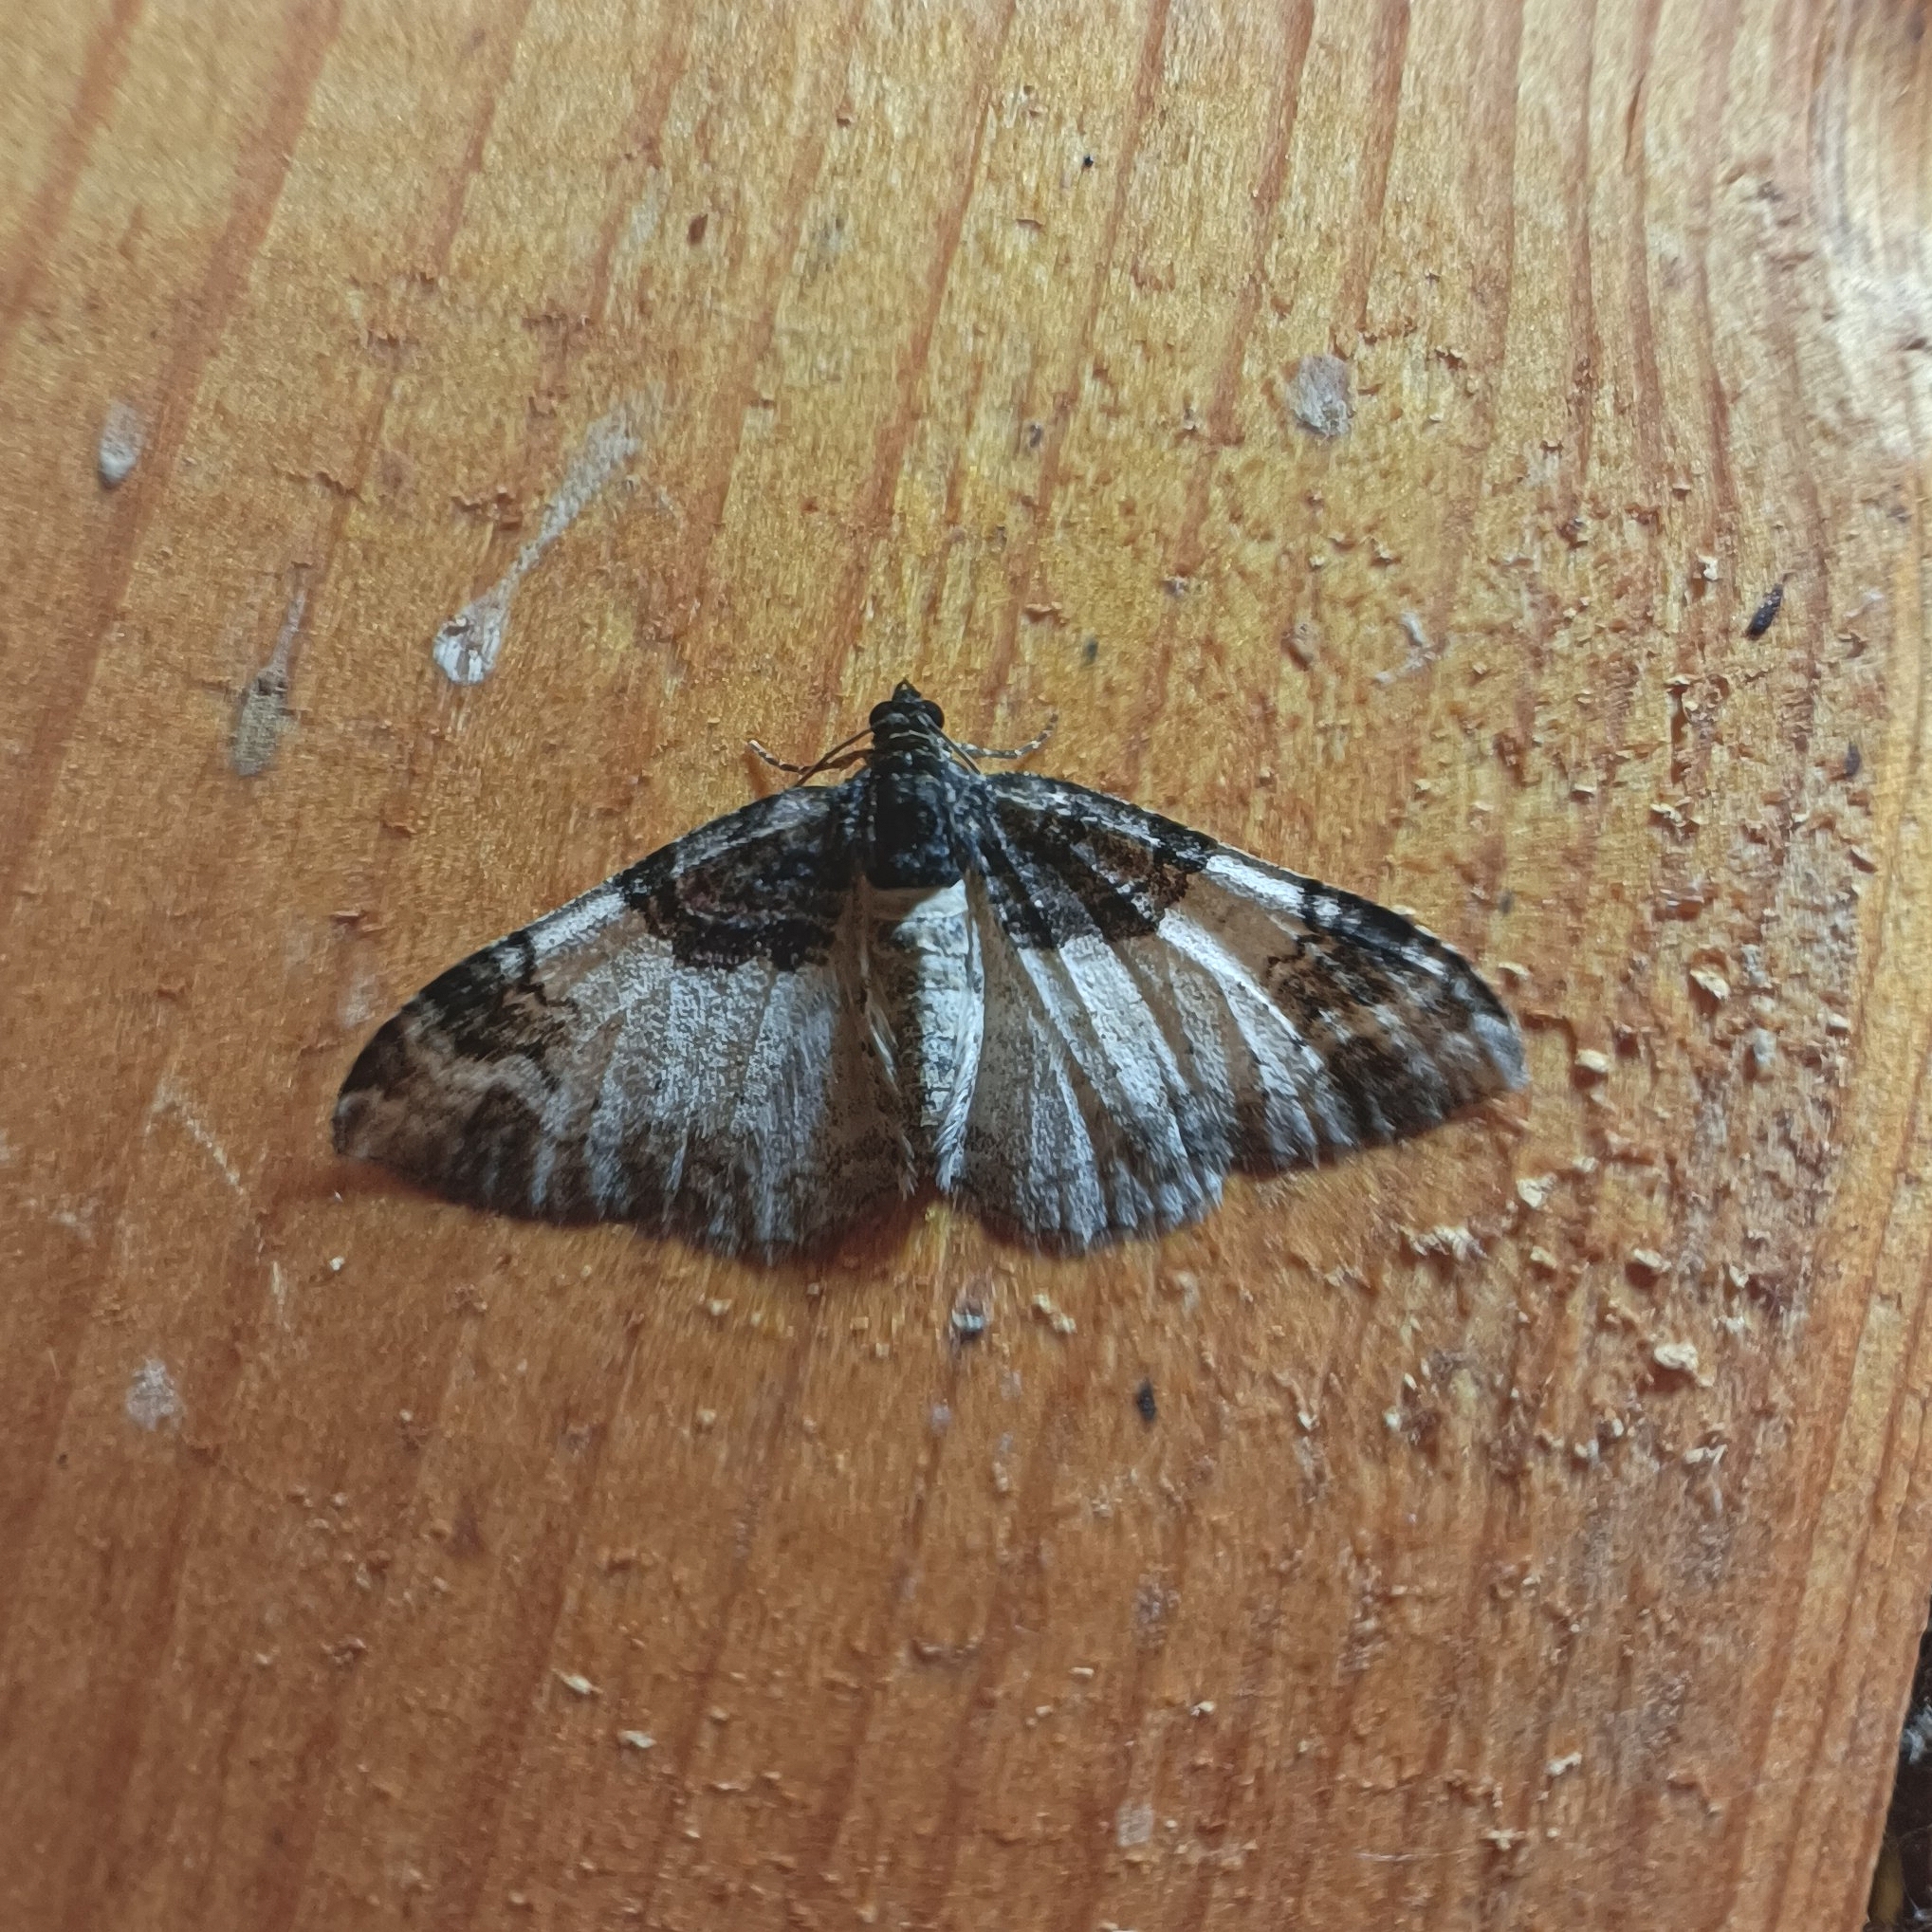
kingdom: Animalia
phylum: Arthropoda
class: Insecta
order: Lepidoptera
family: Geometridae
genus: Catarhoe
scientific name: Catarhoe cuculata
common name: Royal mantle
